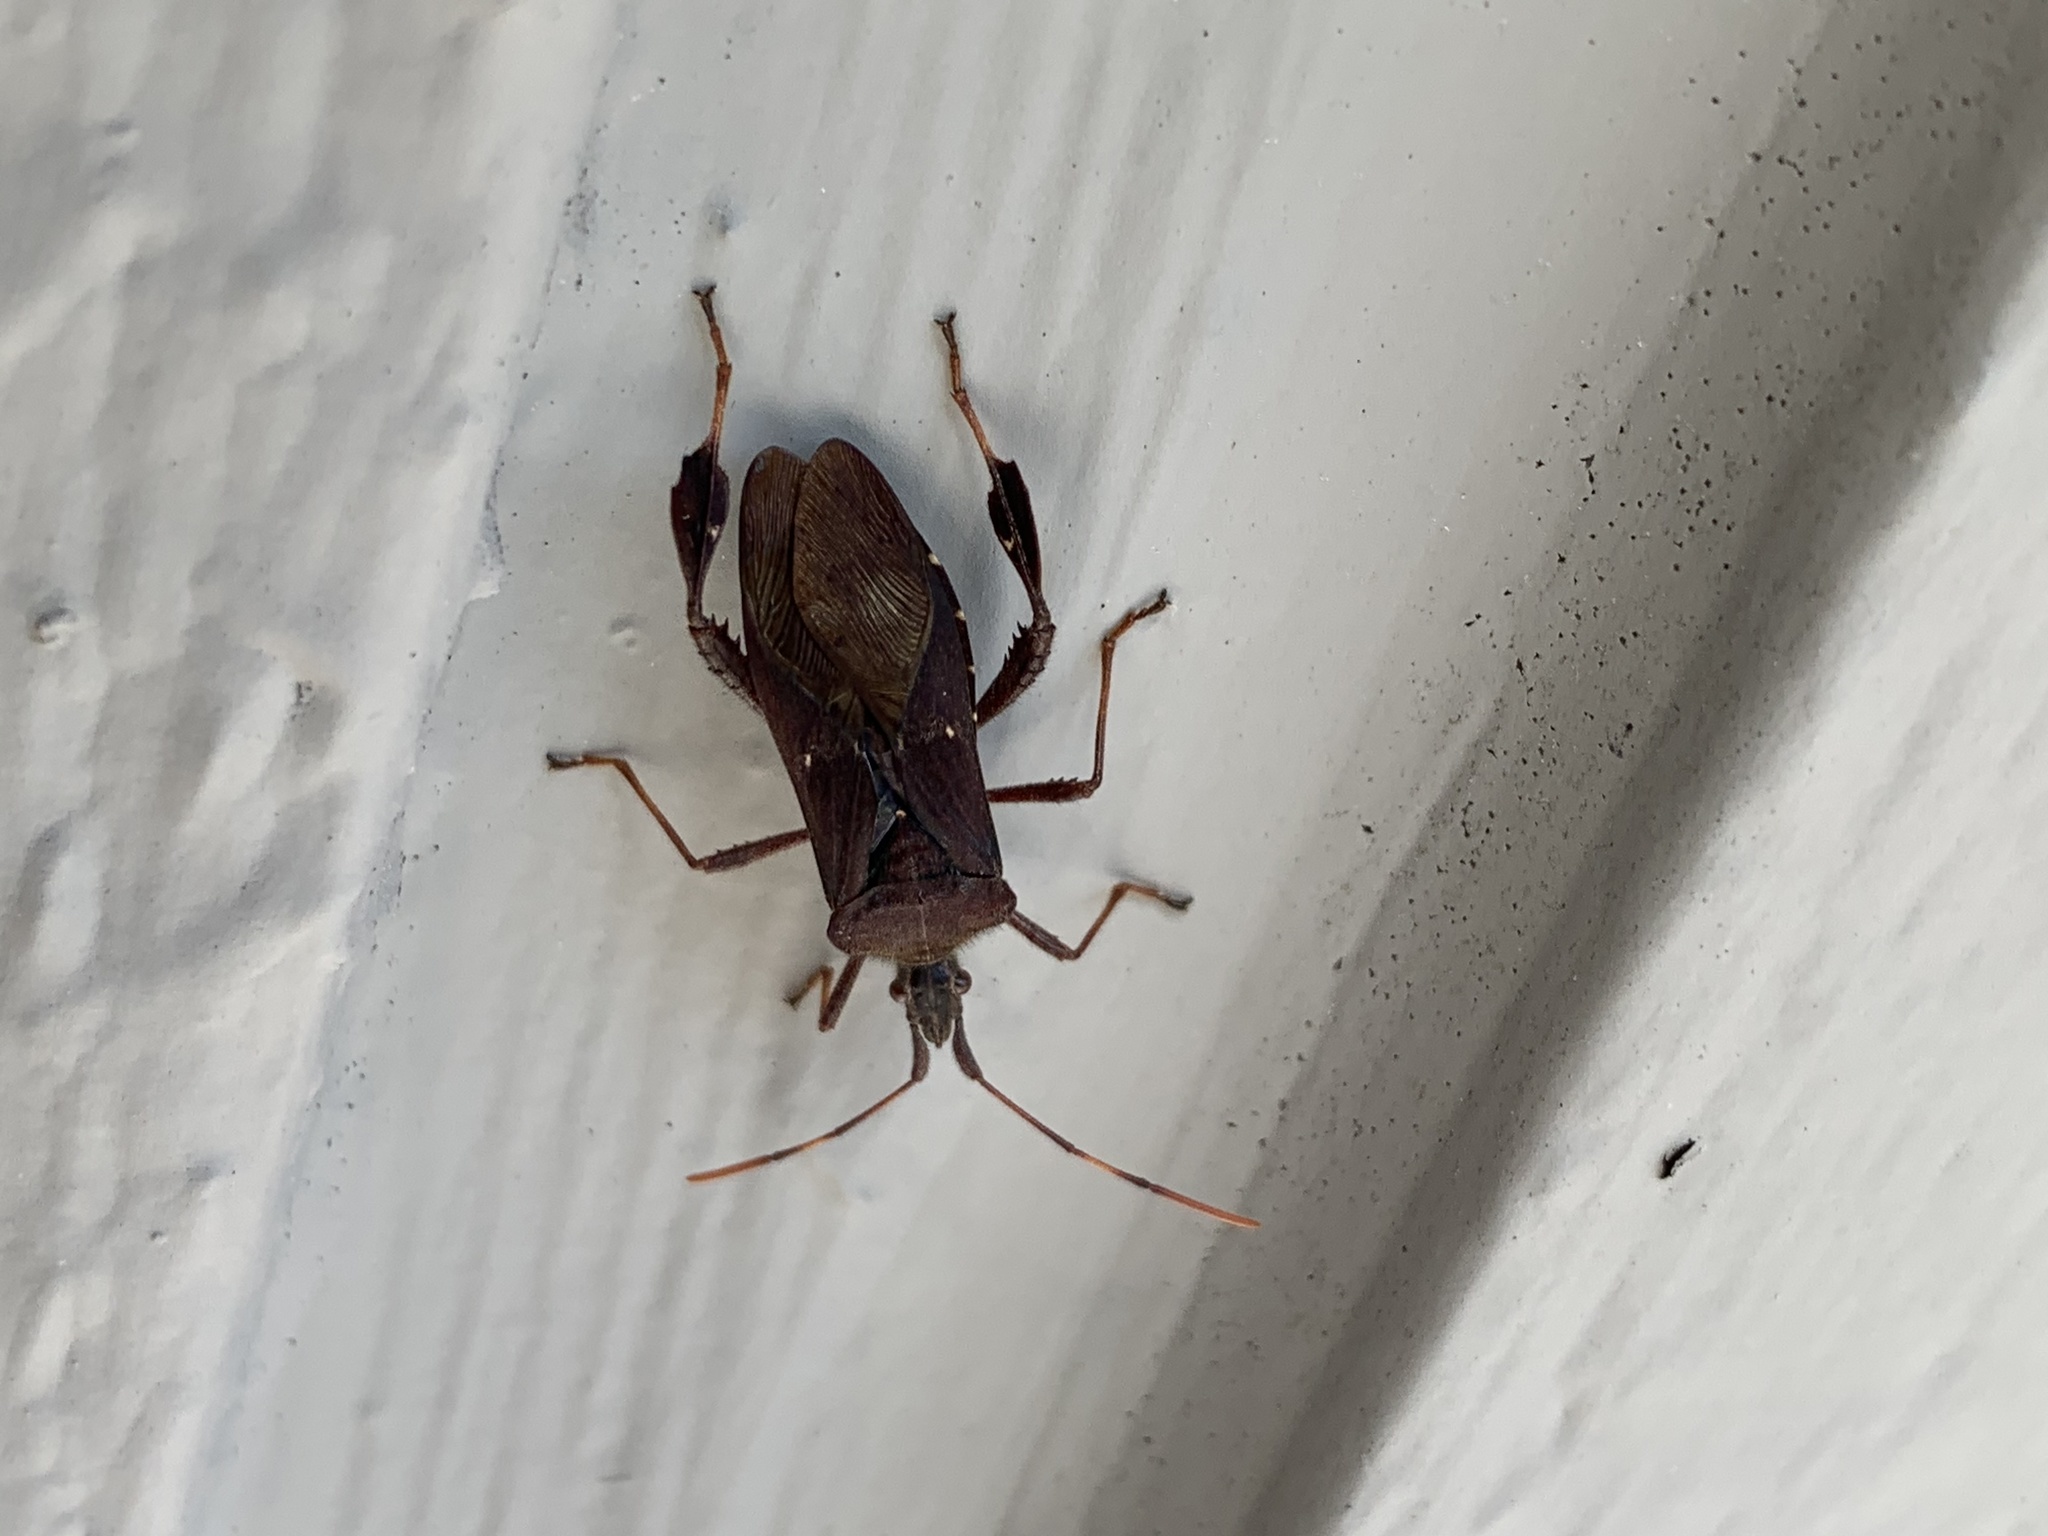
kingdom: Animalia
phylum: Arthropoda
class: Insecta
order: Hemiptera
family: Coreidae
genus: Leptoglossus
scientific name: Leptoglossus oppositus
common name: Northern leaf-footed bug
